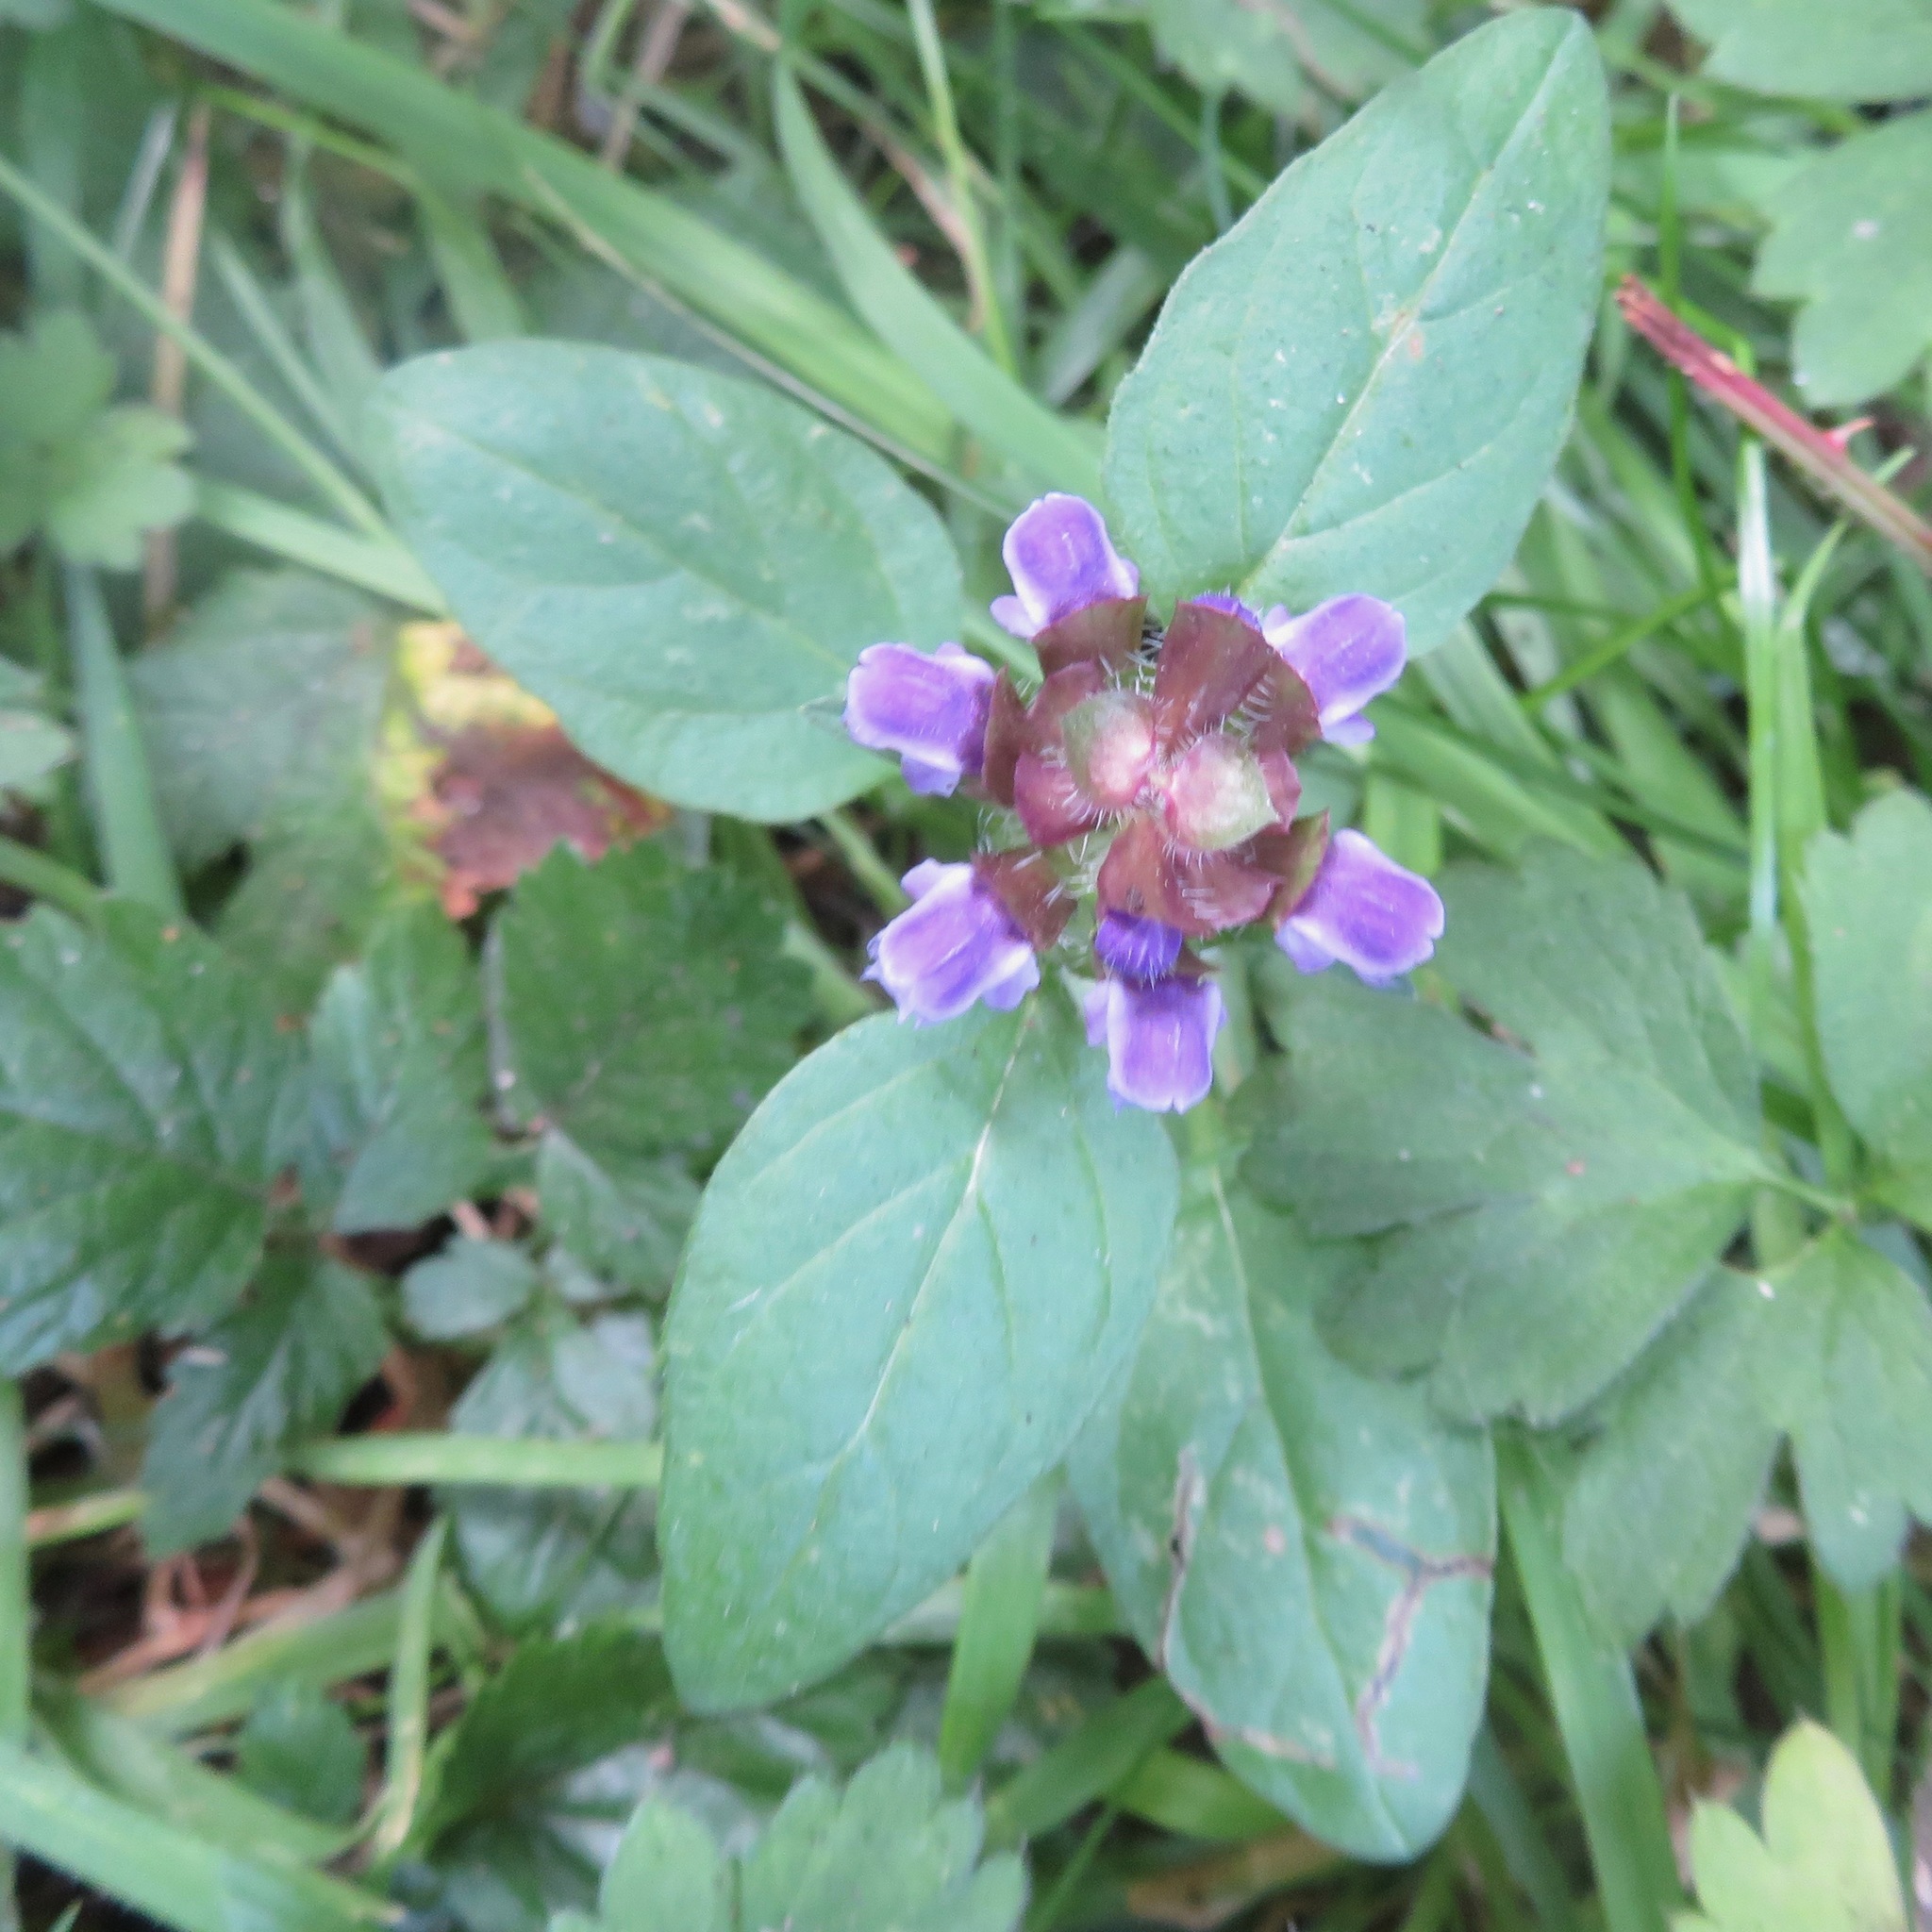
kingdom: Plantae
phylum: Tracheophyta
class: Magnoliopsida
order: Lamiales
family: Lamiaceae
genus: Prunella
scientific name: Prunella vulgaris
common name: Heal-all
